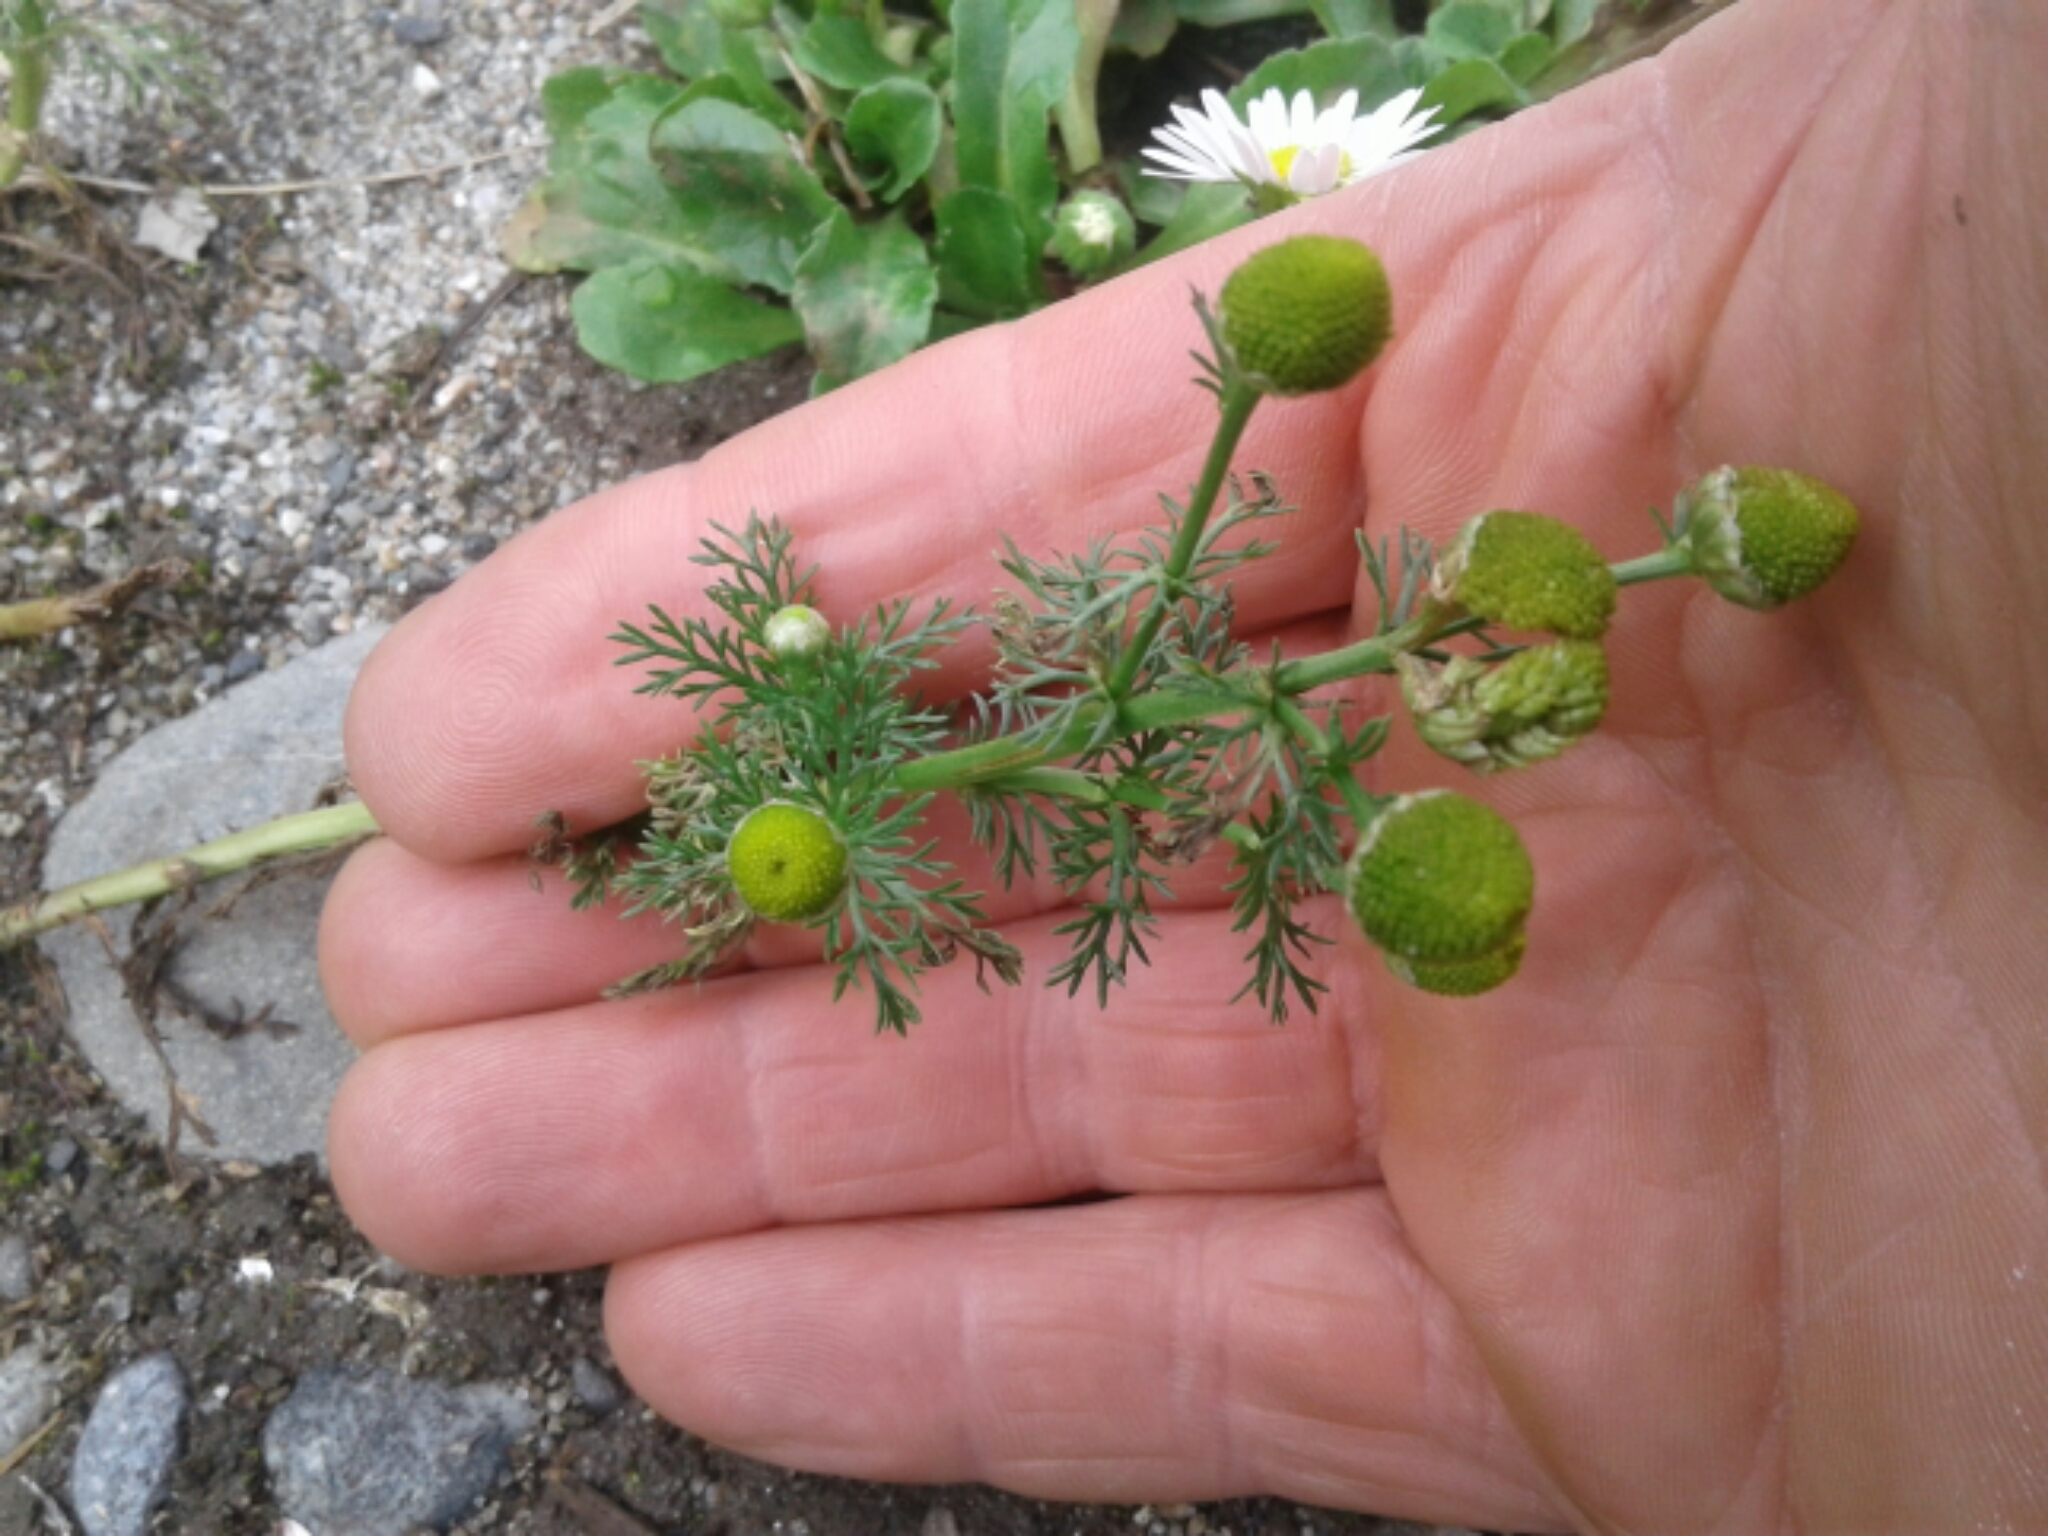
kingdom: Plantae
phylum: Tracheophyta
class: Magnoliopsida
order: Asterales
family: Asteraceae
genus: Matricaria
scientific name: Matricaria discoidea
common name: Disc mayweed
